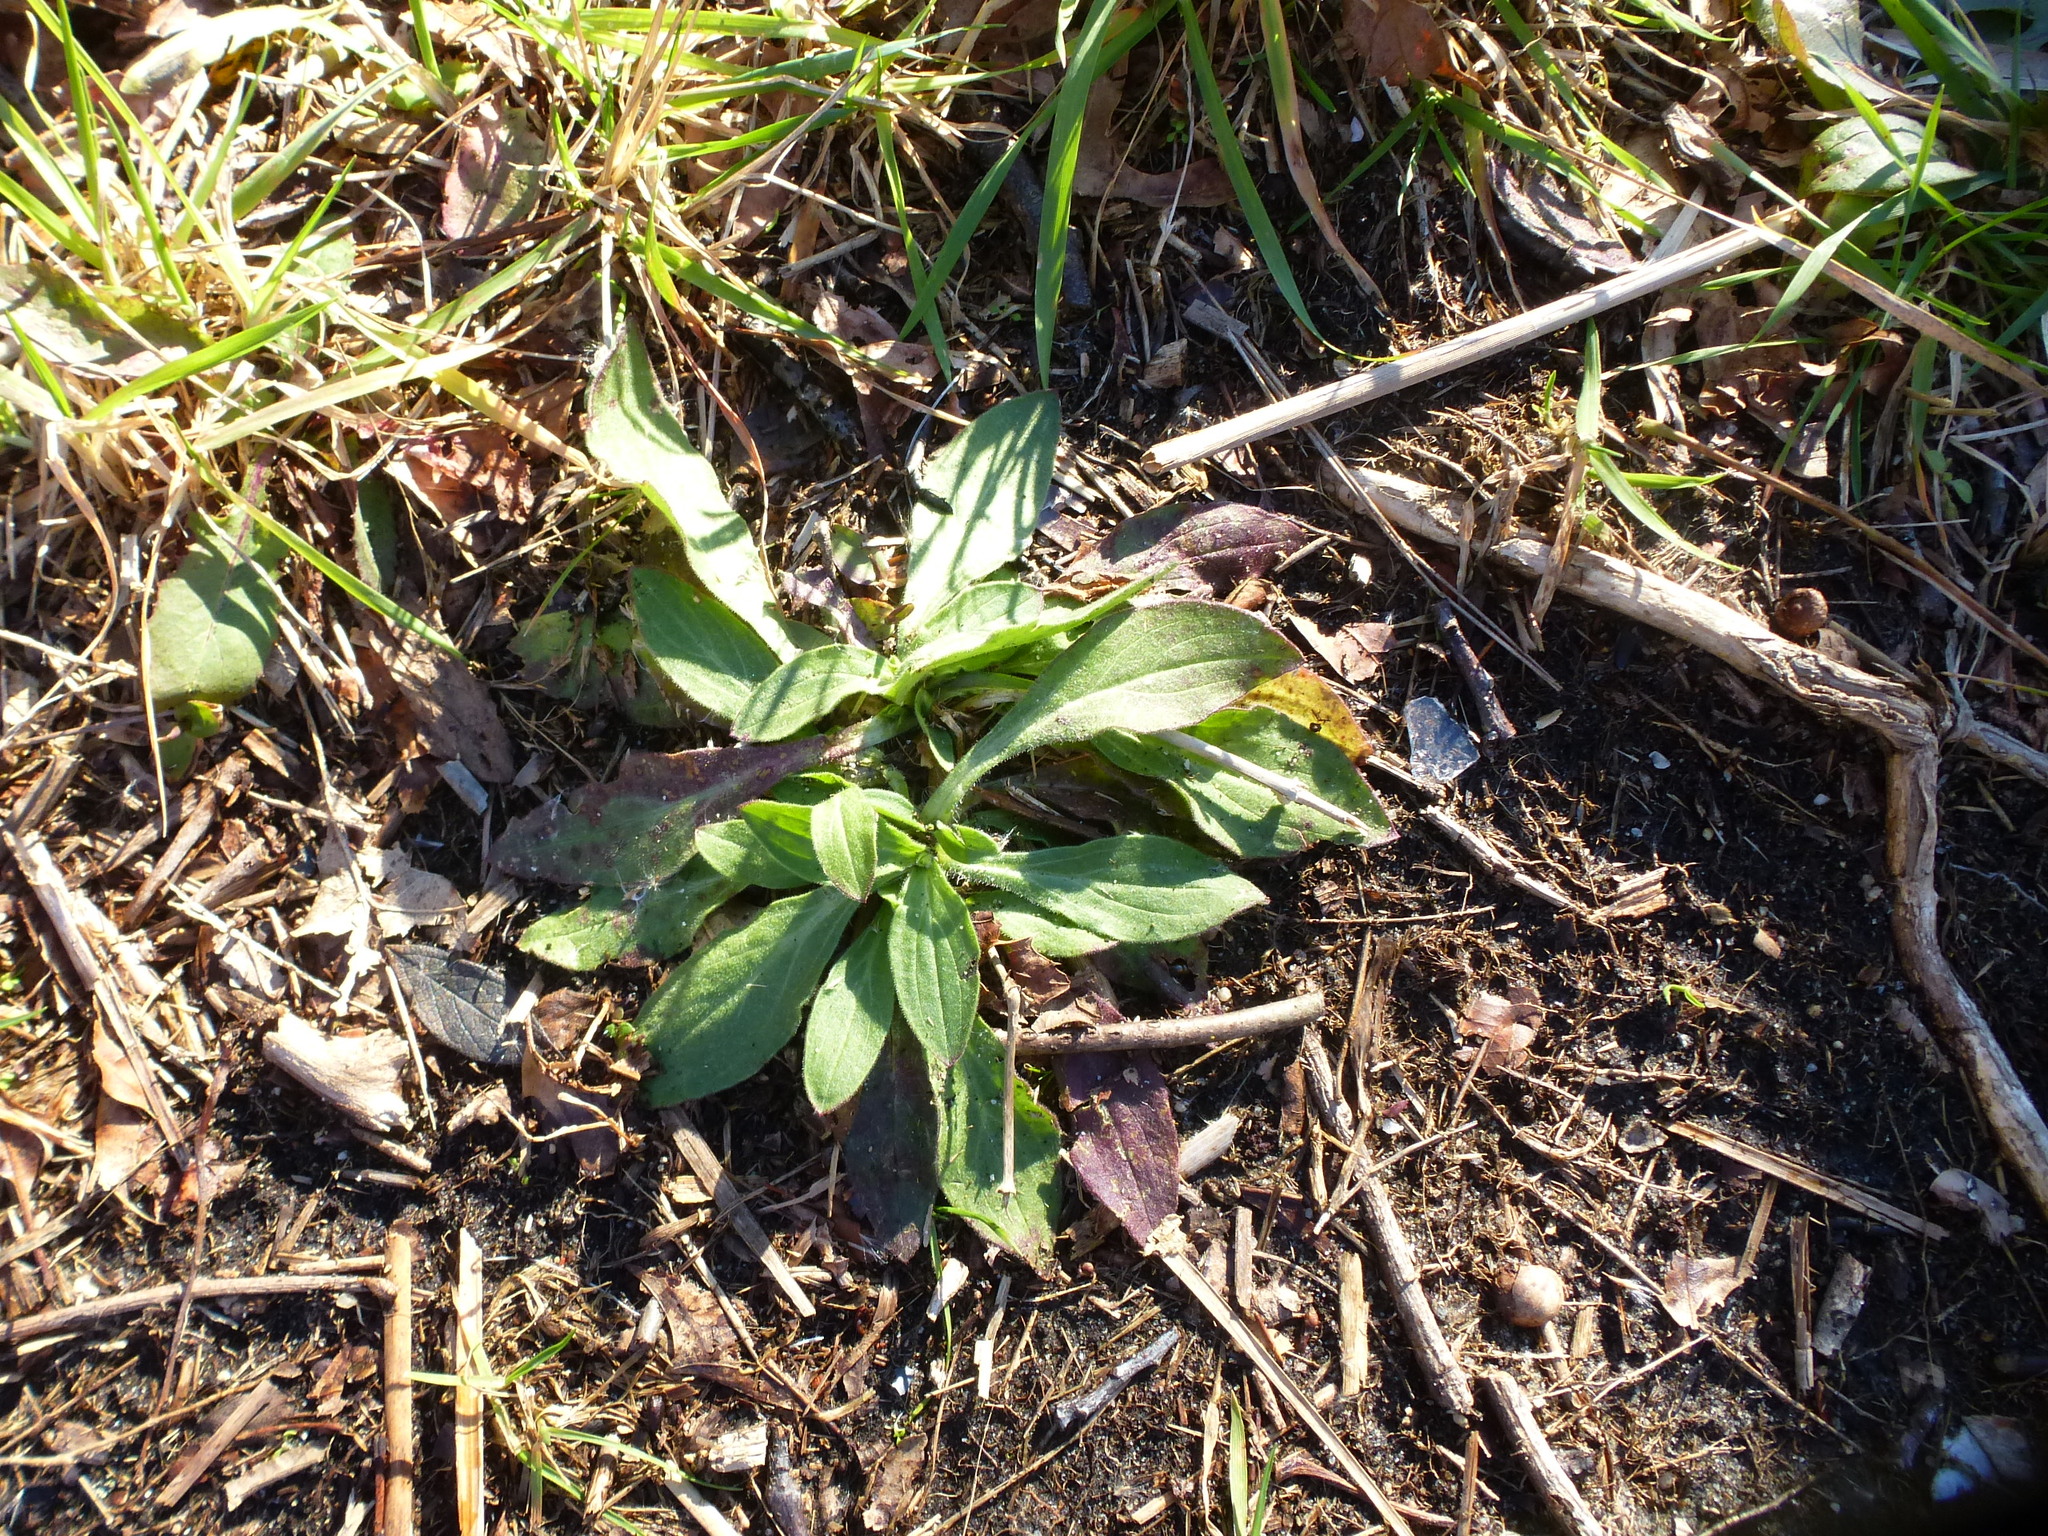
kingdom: Plantae
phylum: Tracheophyta
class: Magnoliopsida
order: Lamiales
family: Plantaginaceae
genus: Plantago
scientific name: Plantago lanceolata
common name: Ribwort plantain
